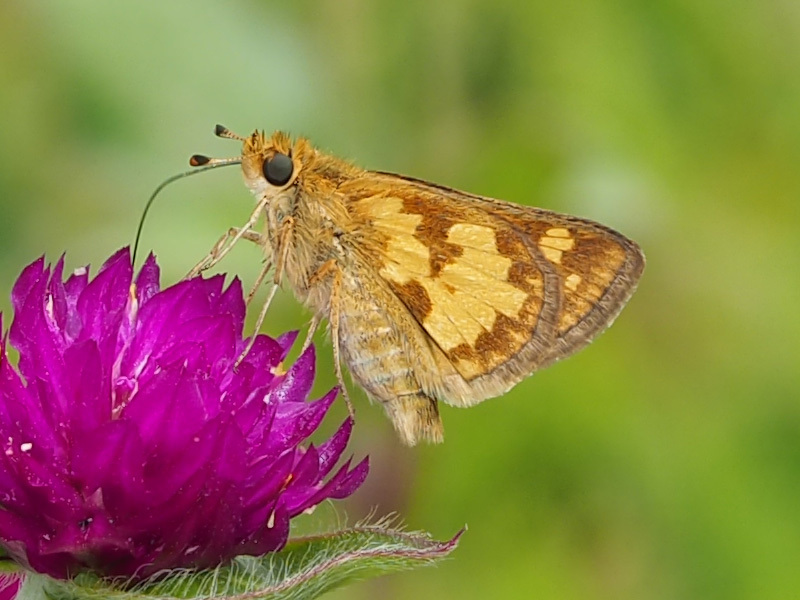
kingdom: Animalia
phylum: Arthropoda
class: Insecta
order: Lepidoptera
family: Hesperiidae
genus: Polites
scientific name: Polites coras
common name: Peck's skipper
